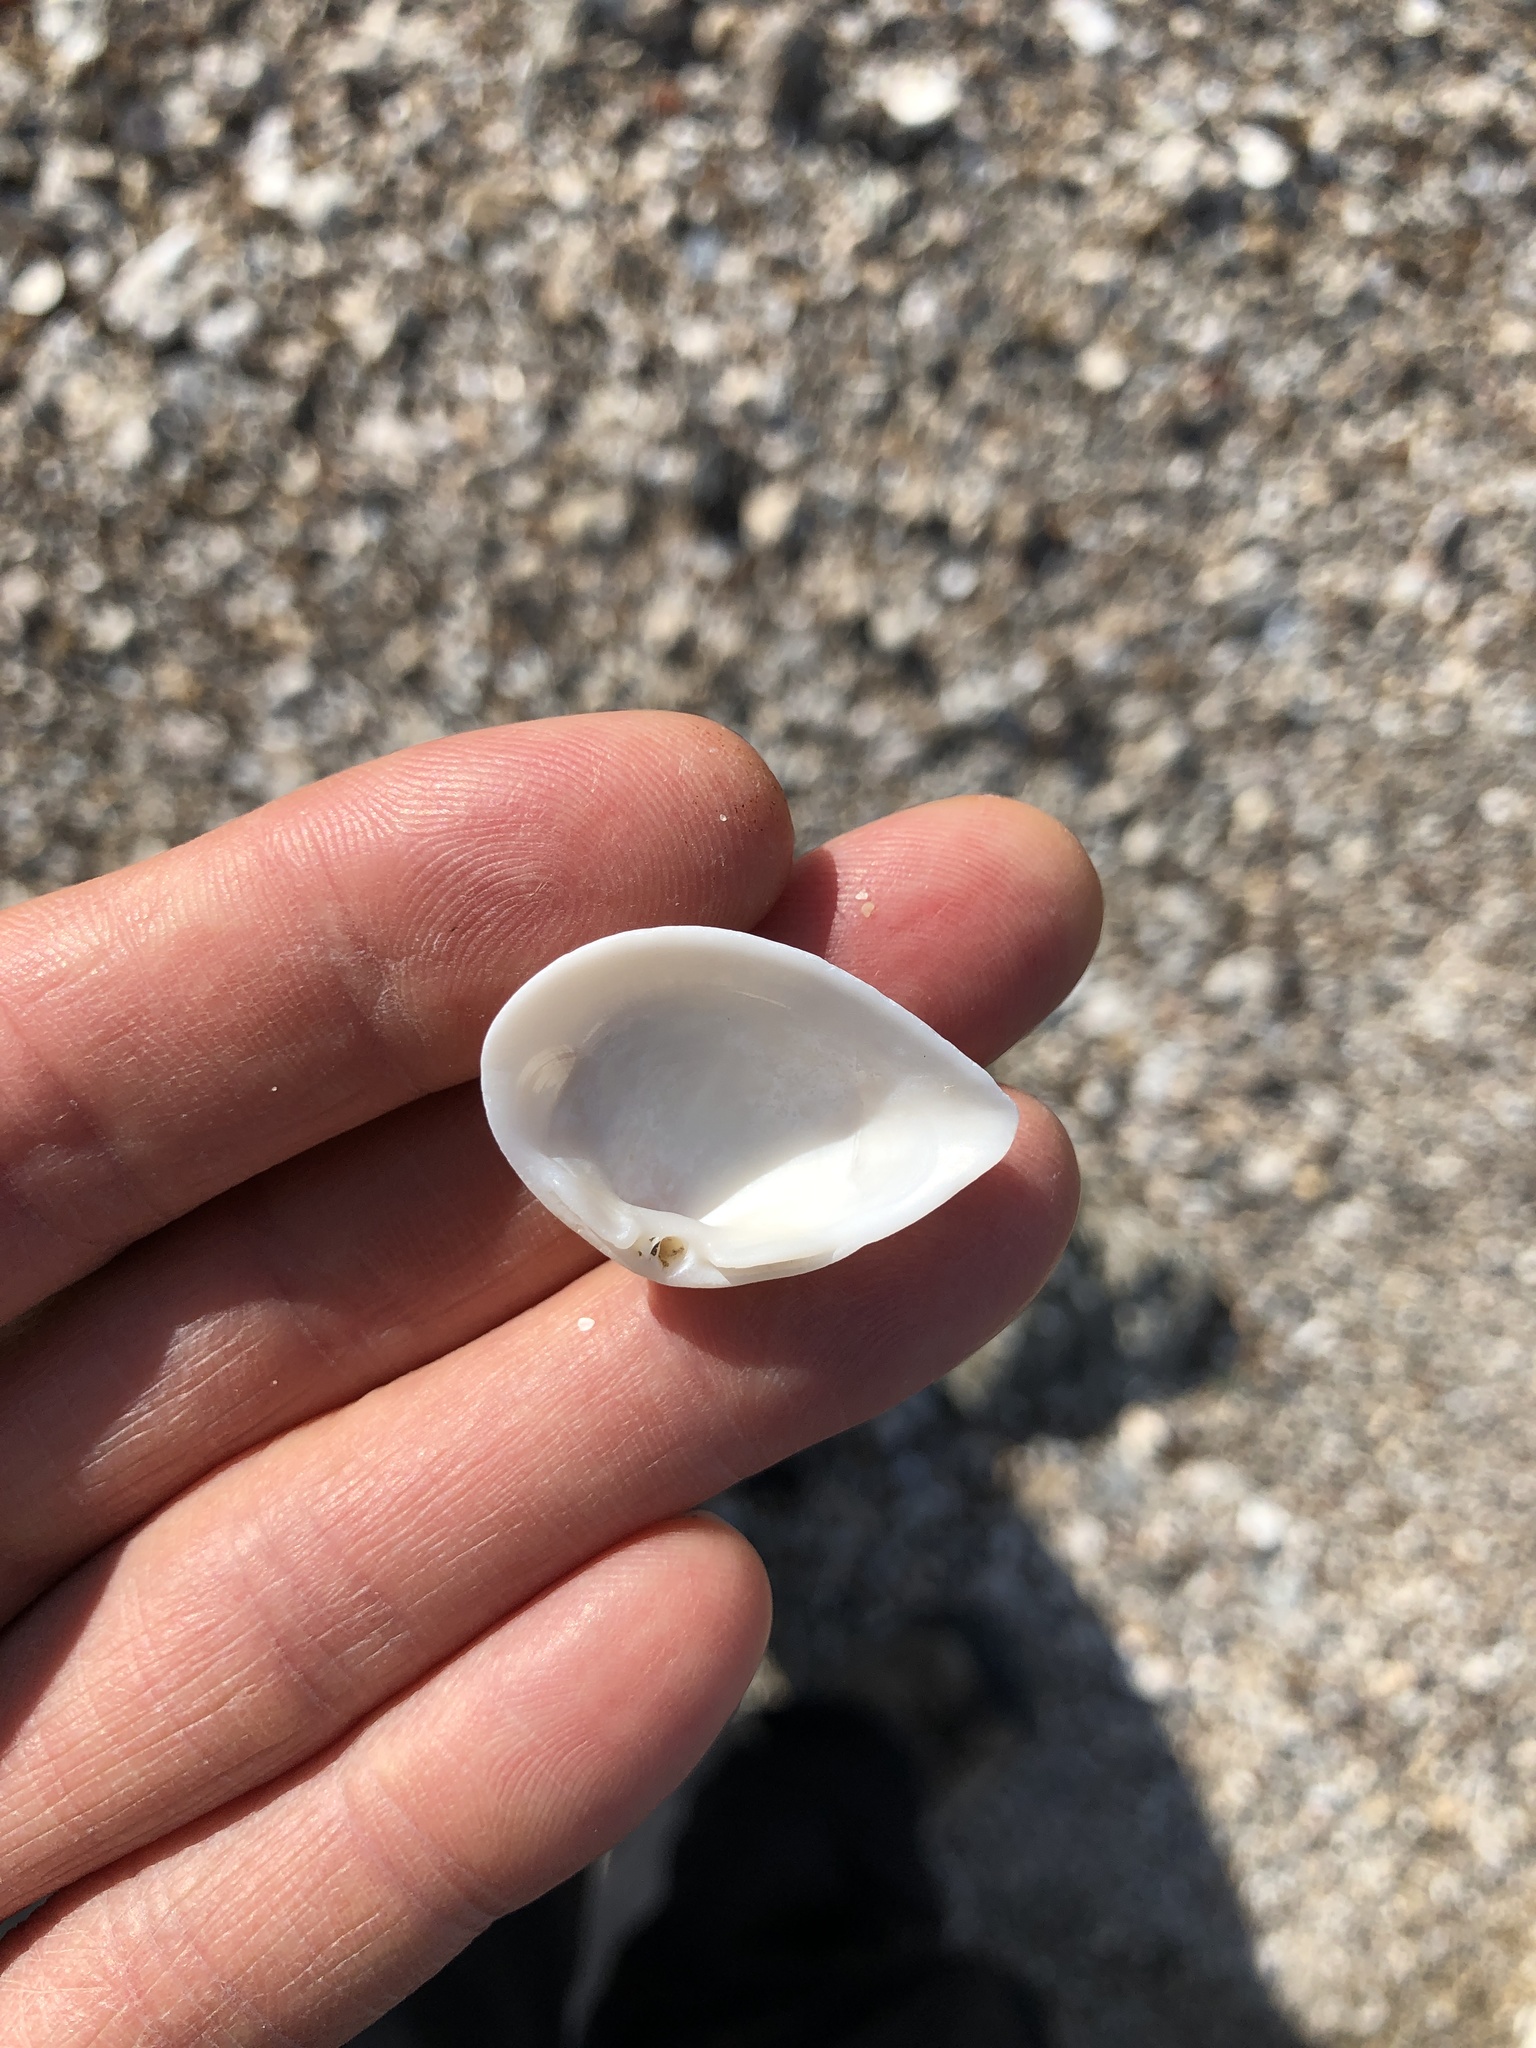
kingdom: Animalia
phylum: Mollusca
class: Bivalvia
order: Venerida
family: Mactridae
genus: Rangia
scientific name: Rangia flexuosa
